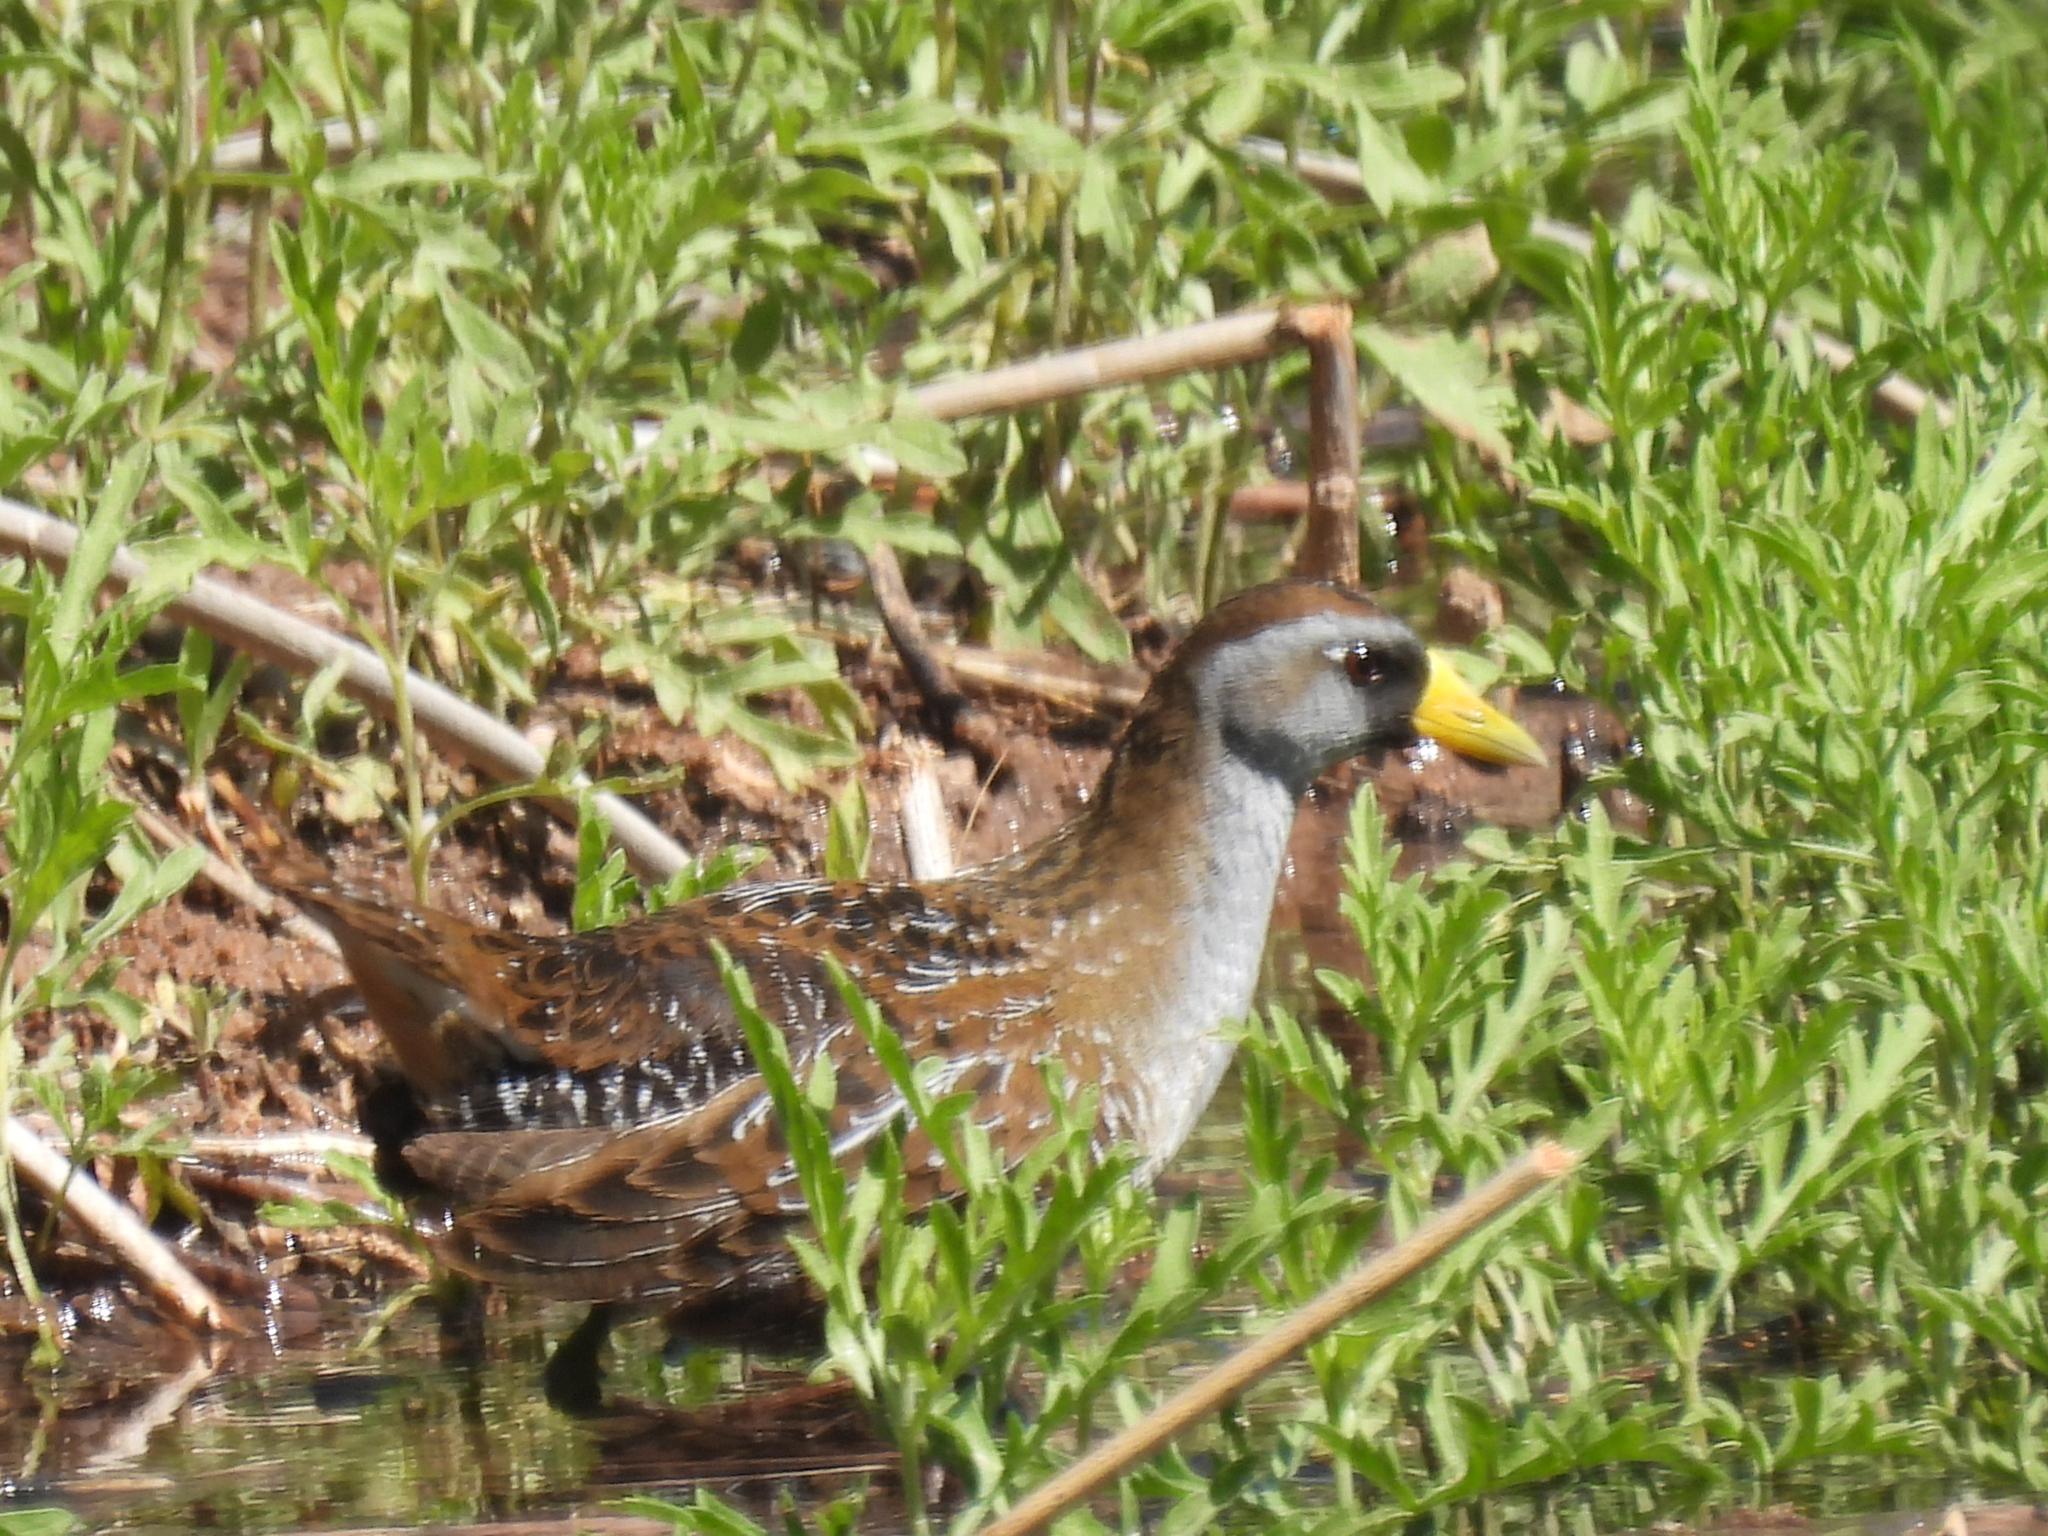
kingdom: Animalia
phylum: Chordata
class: Aves
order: Gruiformes
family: Rallidae
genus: Porzana
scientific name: Porzana carolina
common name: Sora
